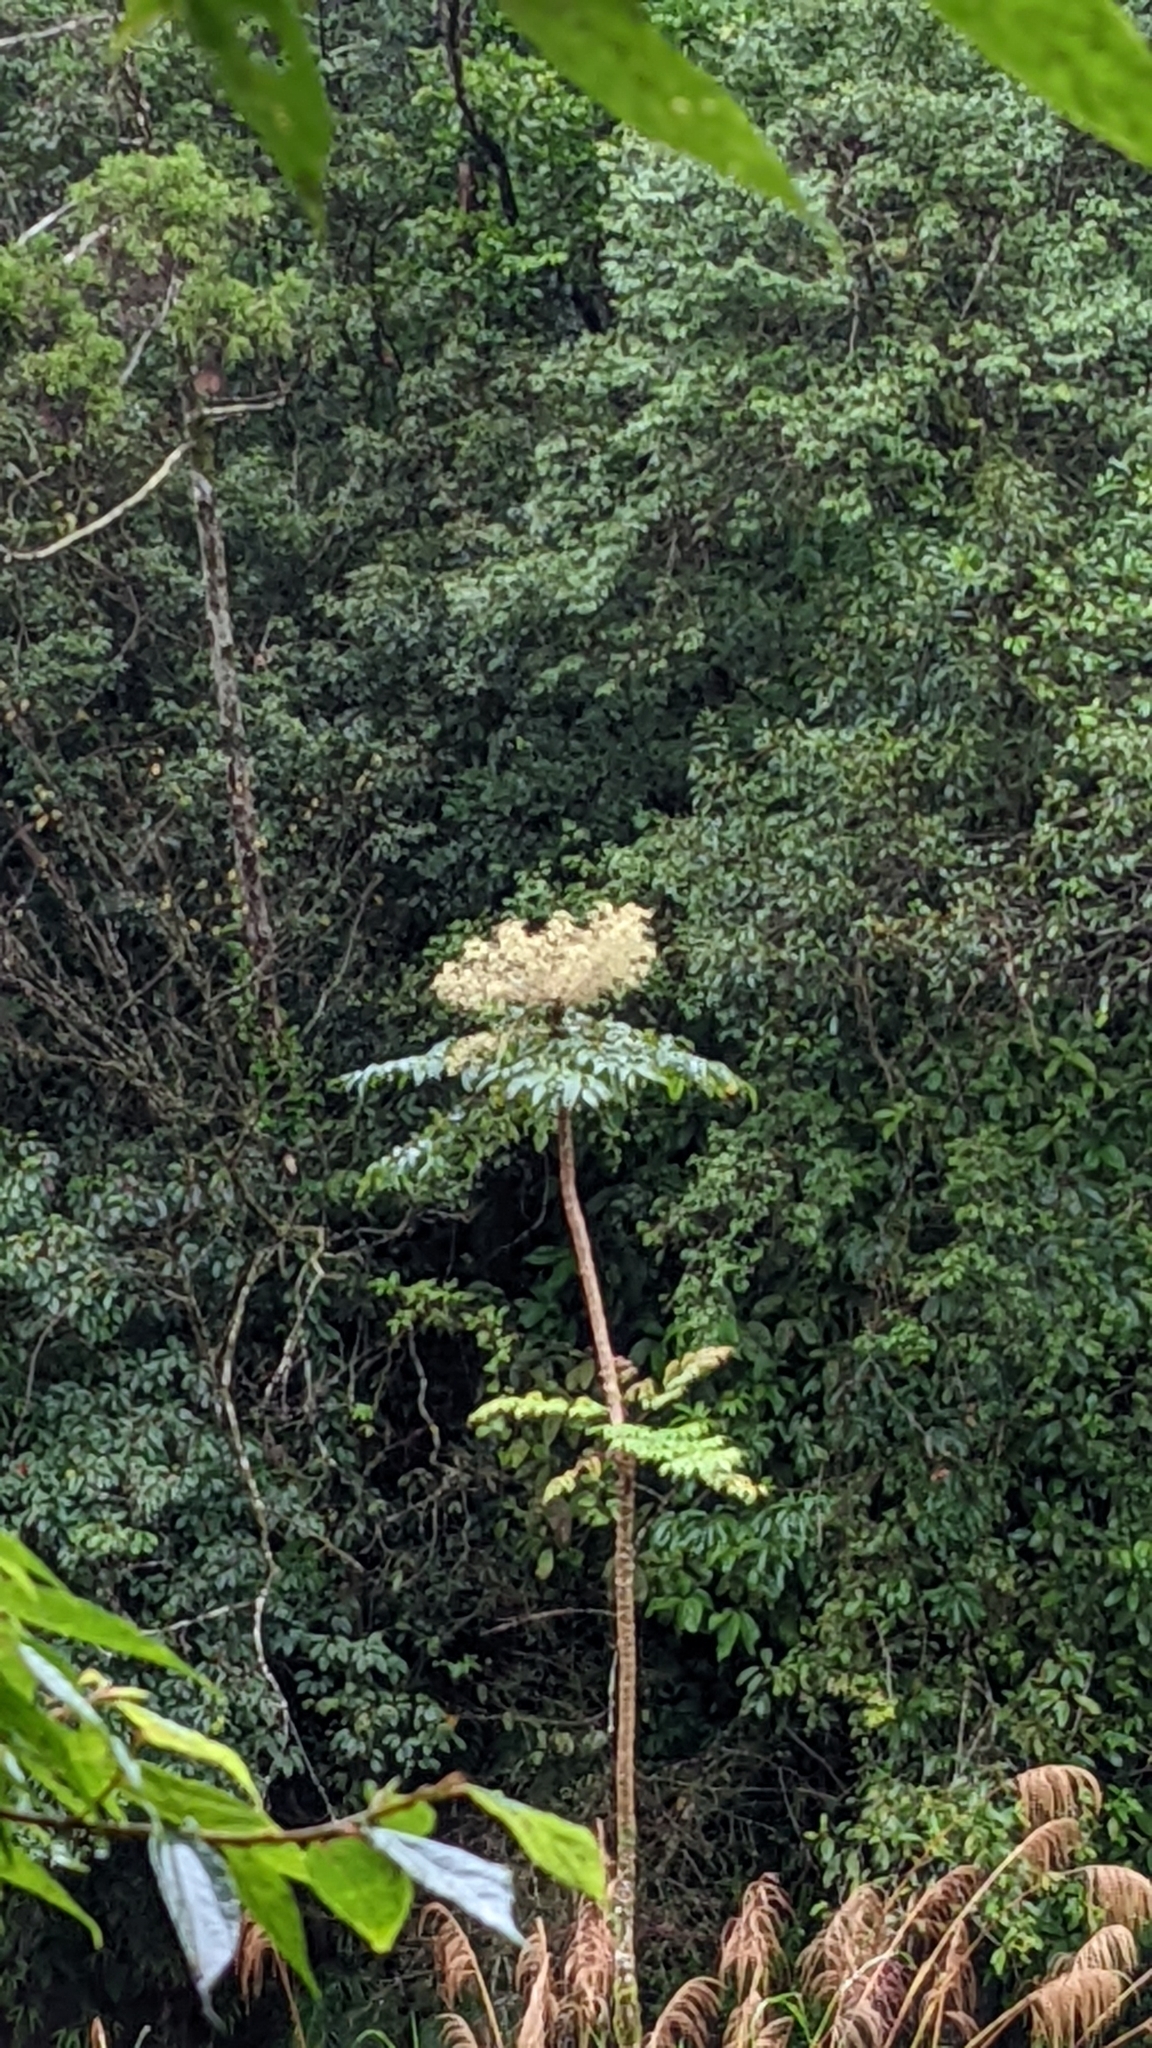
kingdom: Plantae
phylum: Tracheophyta
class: Magnoliopsida
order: Apiales
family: Araliaceae
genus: Aralia
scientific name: Aralia decaisneana
